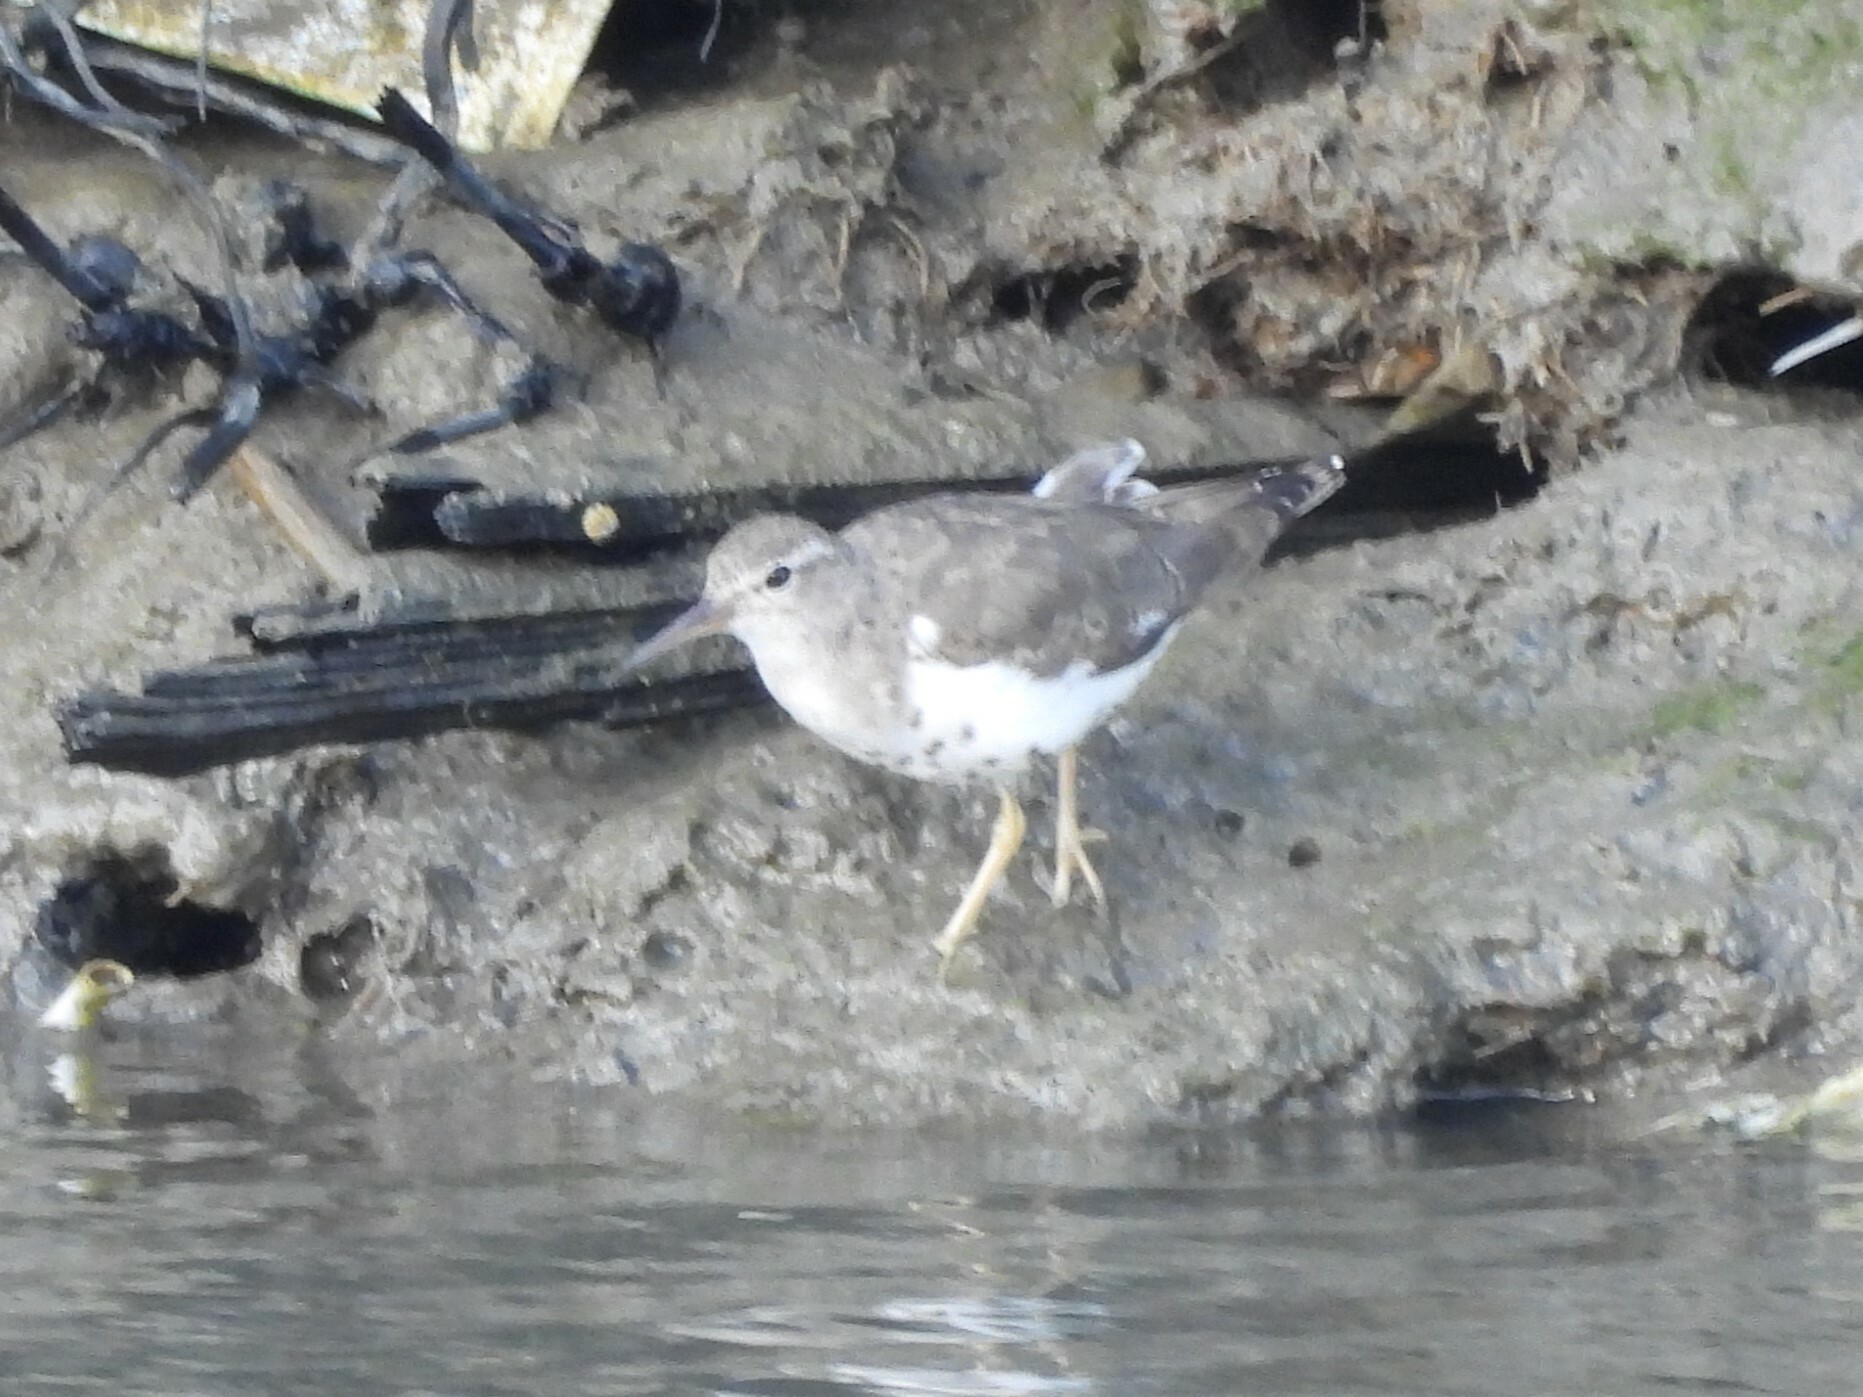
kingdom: Animalia
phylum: Chordata
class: Aves
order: Charadriiformes
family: Scolopacidae
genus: Actitis
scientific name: Actitis macularius
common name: Spotted sandpiper
